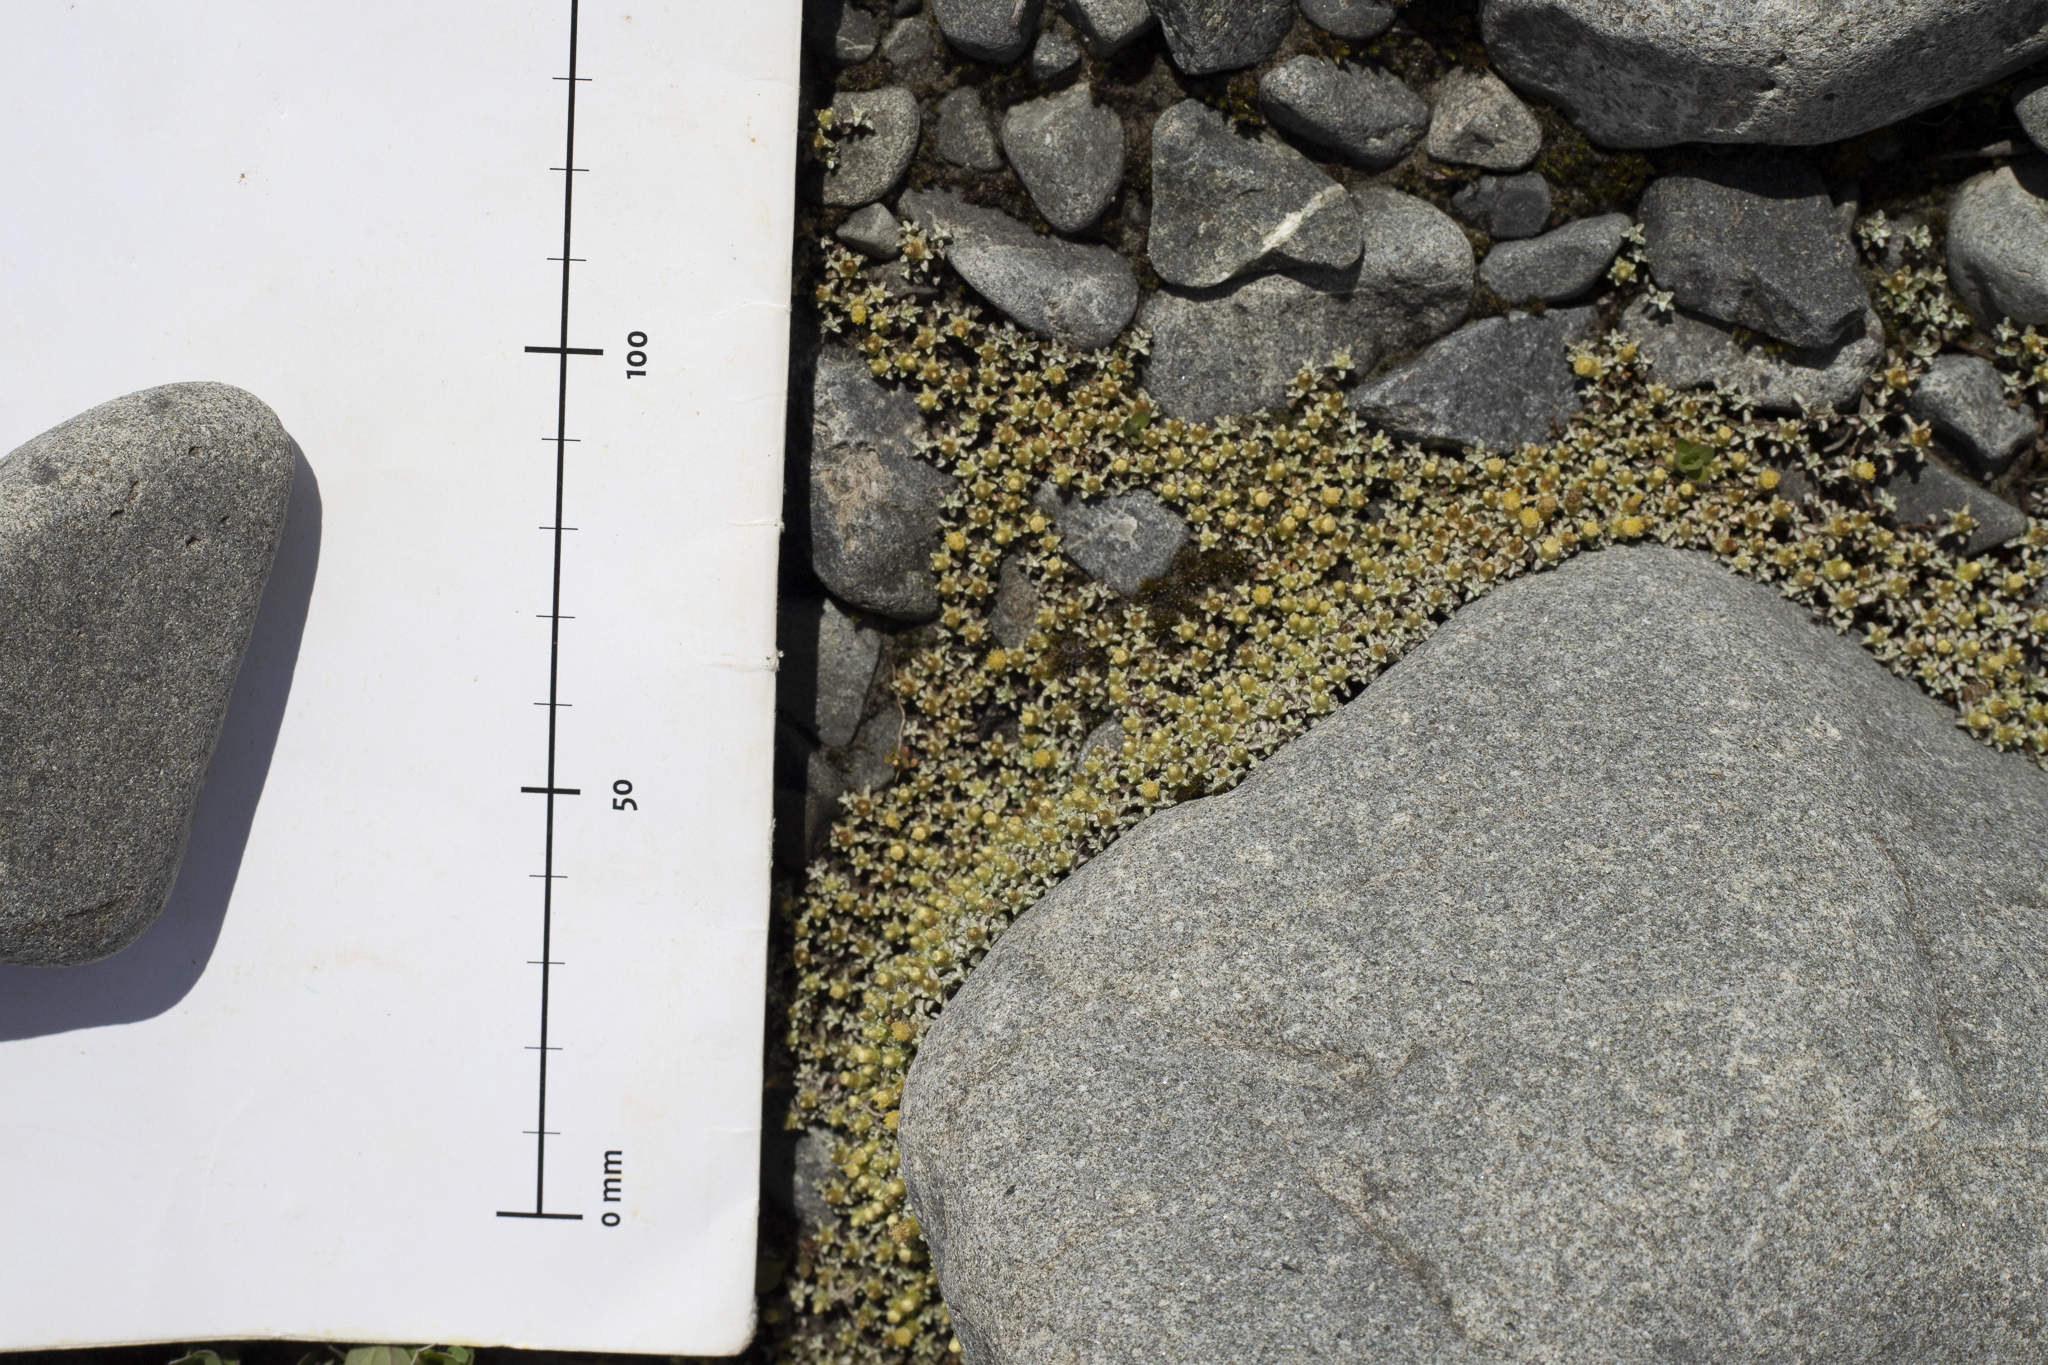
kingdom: Plantae
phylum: Tracheophyta
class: Magnoliopsida
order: Asterales
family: Asteraceae
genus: Raoulia
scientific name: Raoulia hookeri
